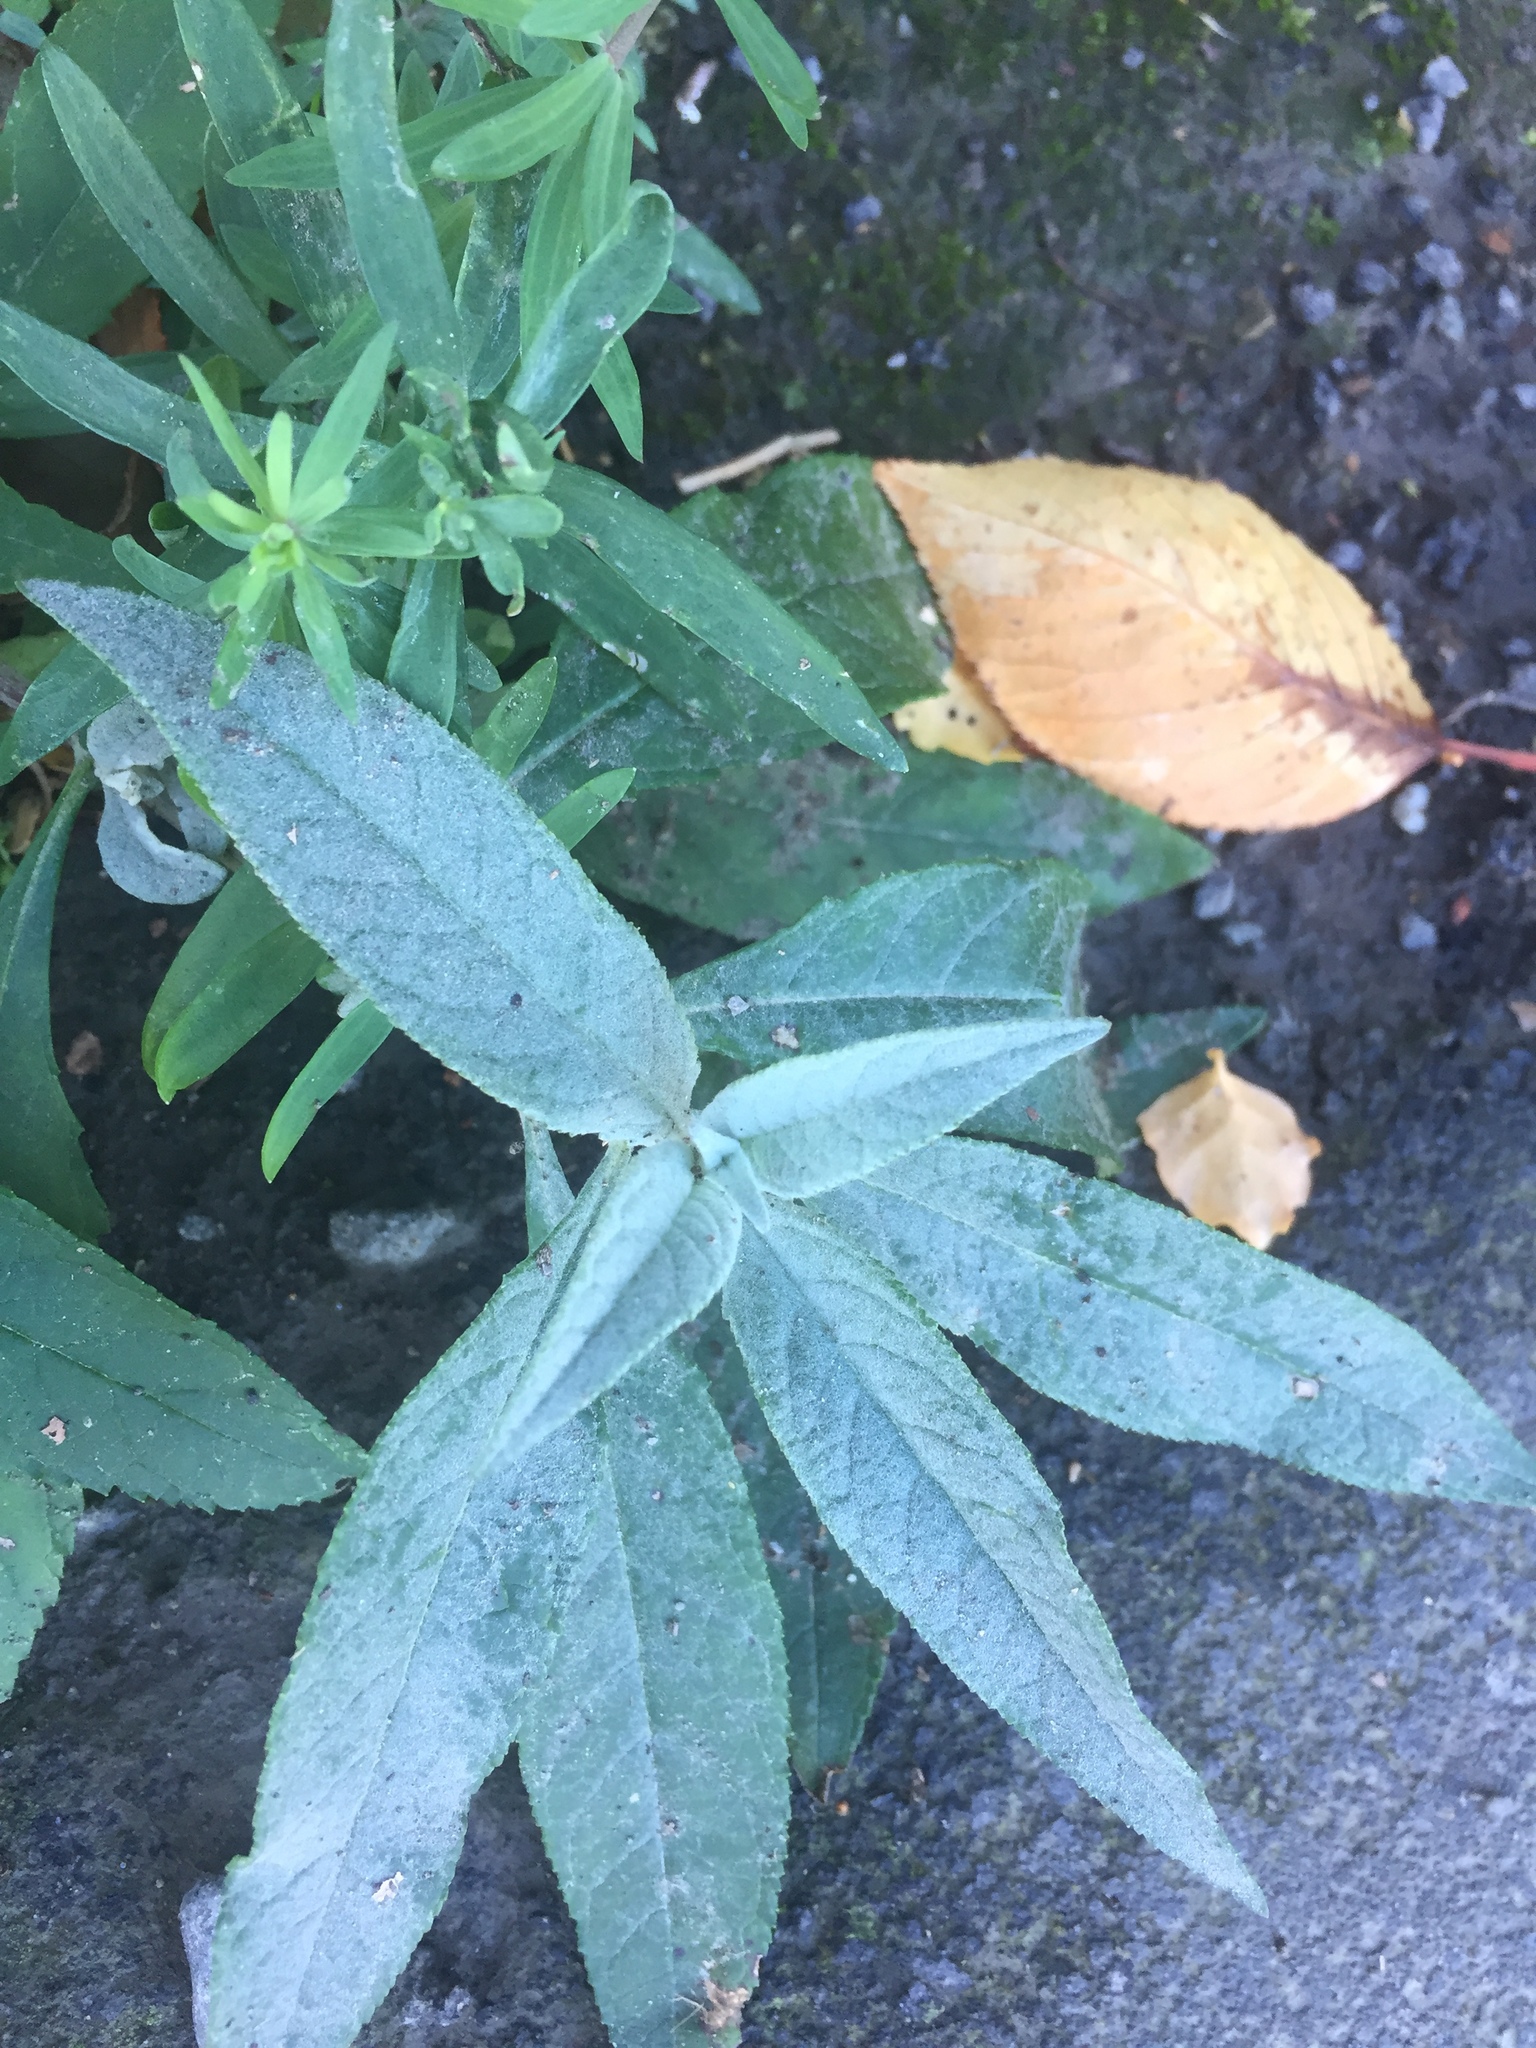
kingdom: Plantae
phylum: Tracheophyta
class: Magnoliopsida
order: Lamiales
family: Scrophulariaceae
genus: Buddleja
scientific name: Buddleja davidii
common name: Butterfly-bush
